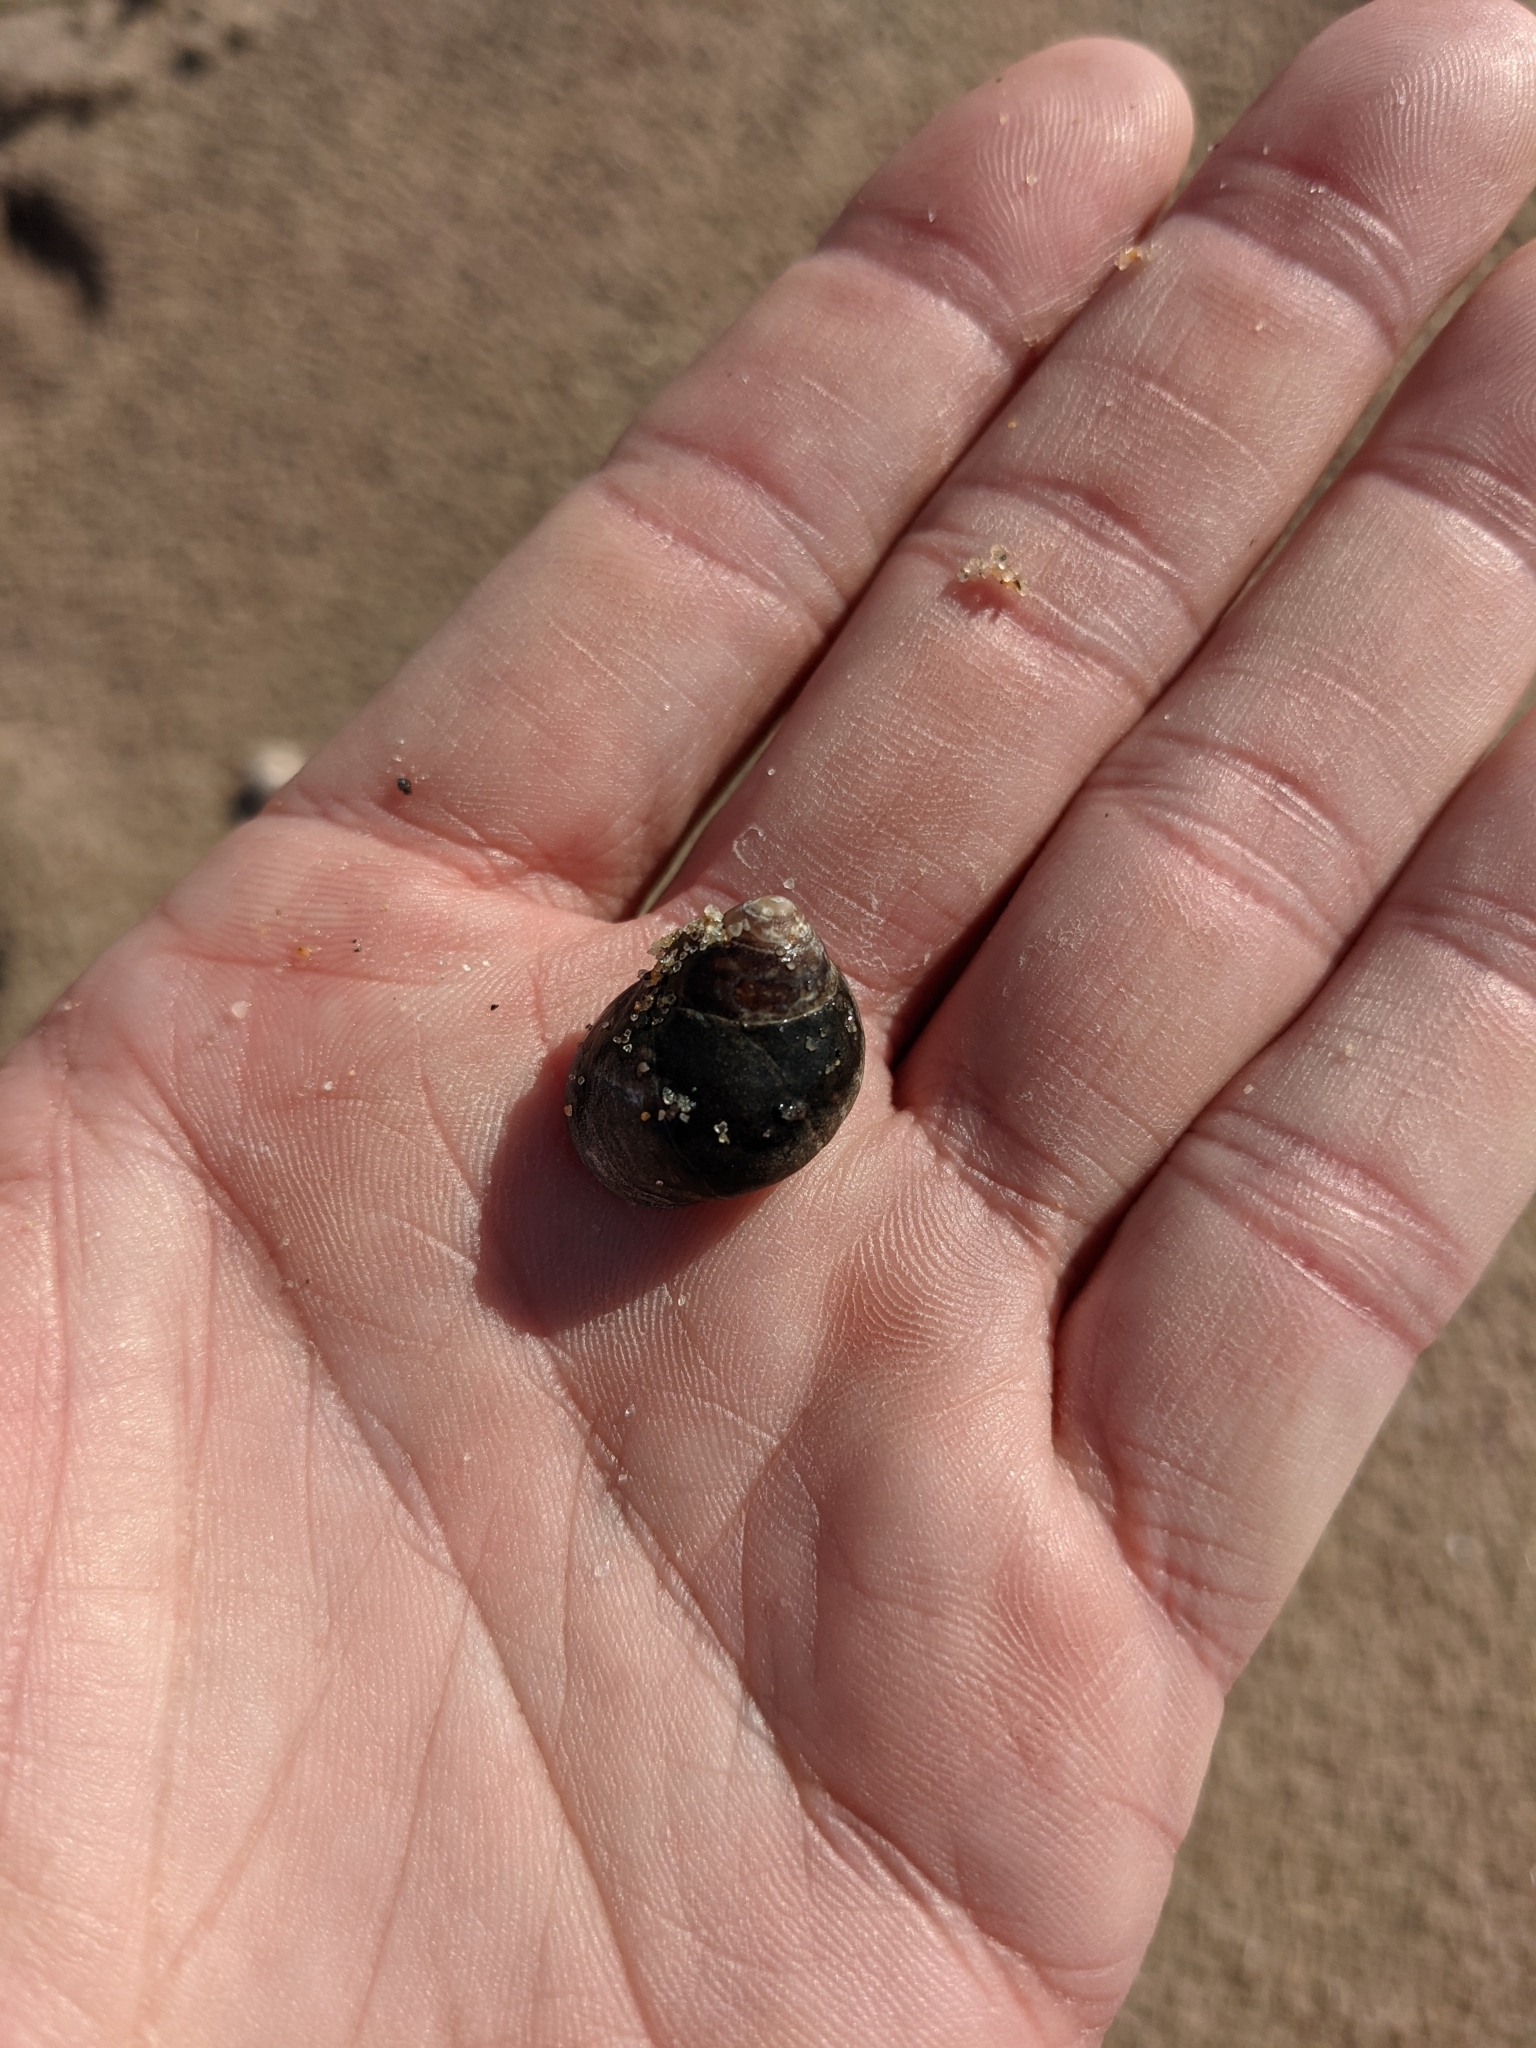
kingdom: Animalia
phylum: Mollusca
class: Gastropoda
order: Littorinimorpha
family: Littorinidae
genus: Littorina
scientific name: Littorina littorea
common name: Common periwinkle
